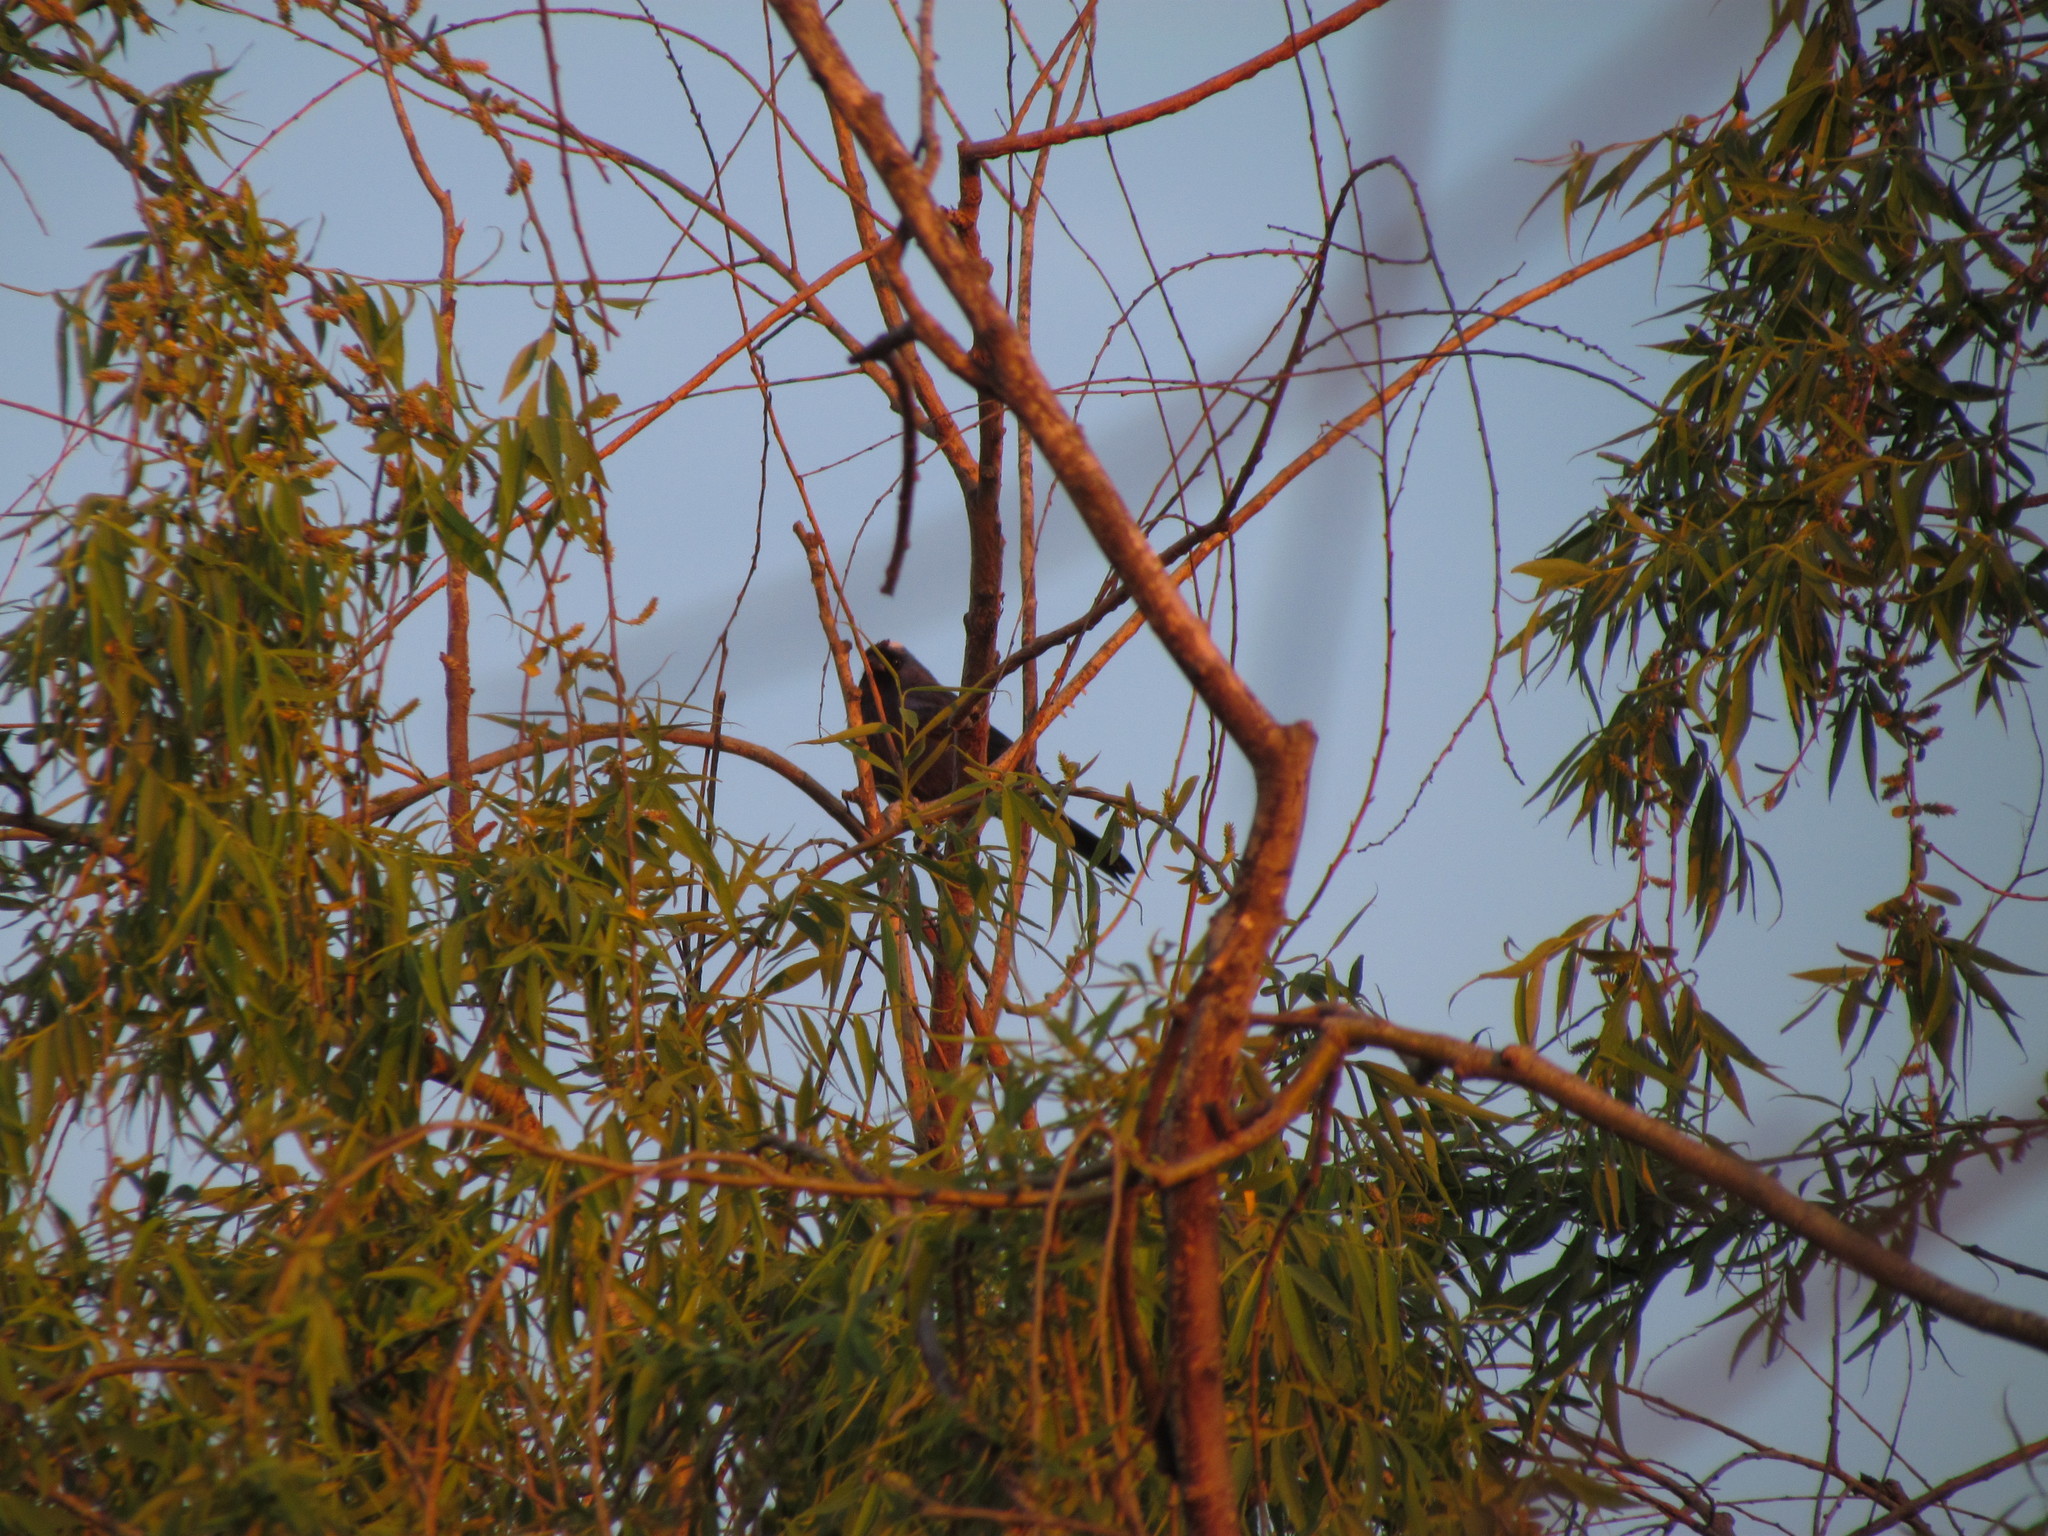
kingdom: Animalia
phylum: Chordata
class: Aves
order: Passeriformes
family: Thraupidae
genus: Stephanophorus
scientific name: Stephanophorus diadematus
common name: Diademed tanager
